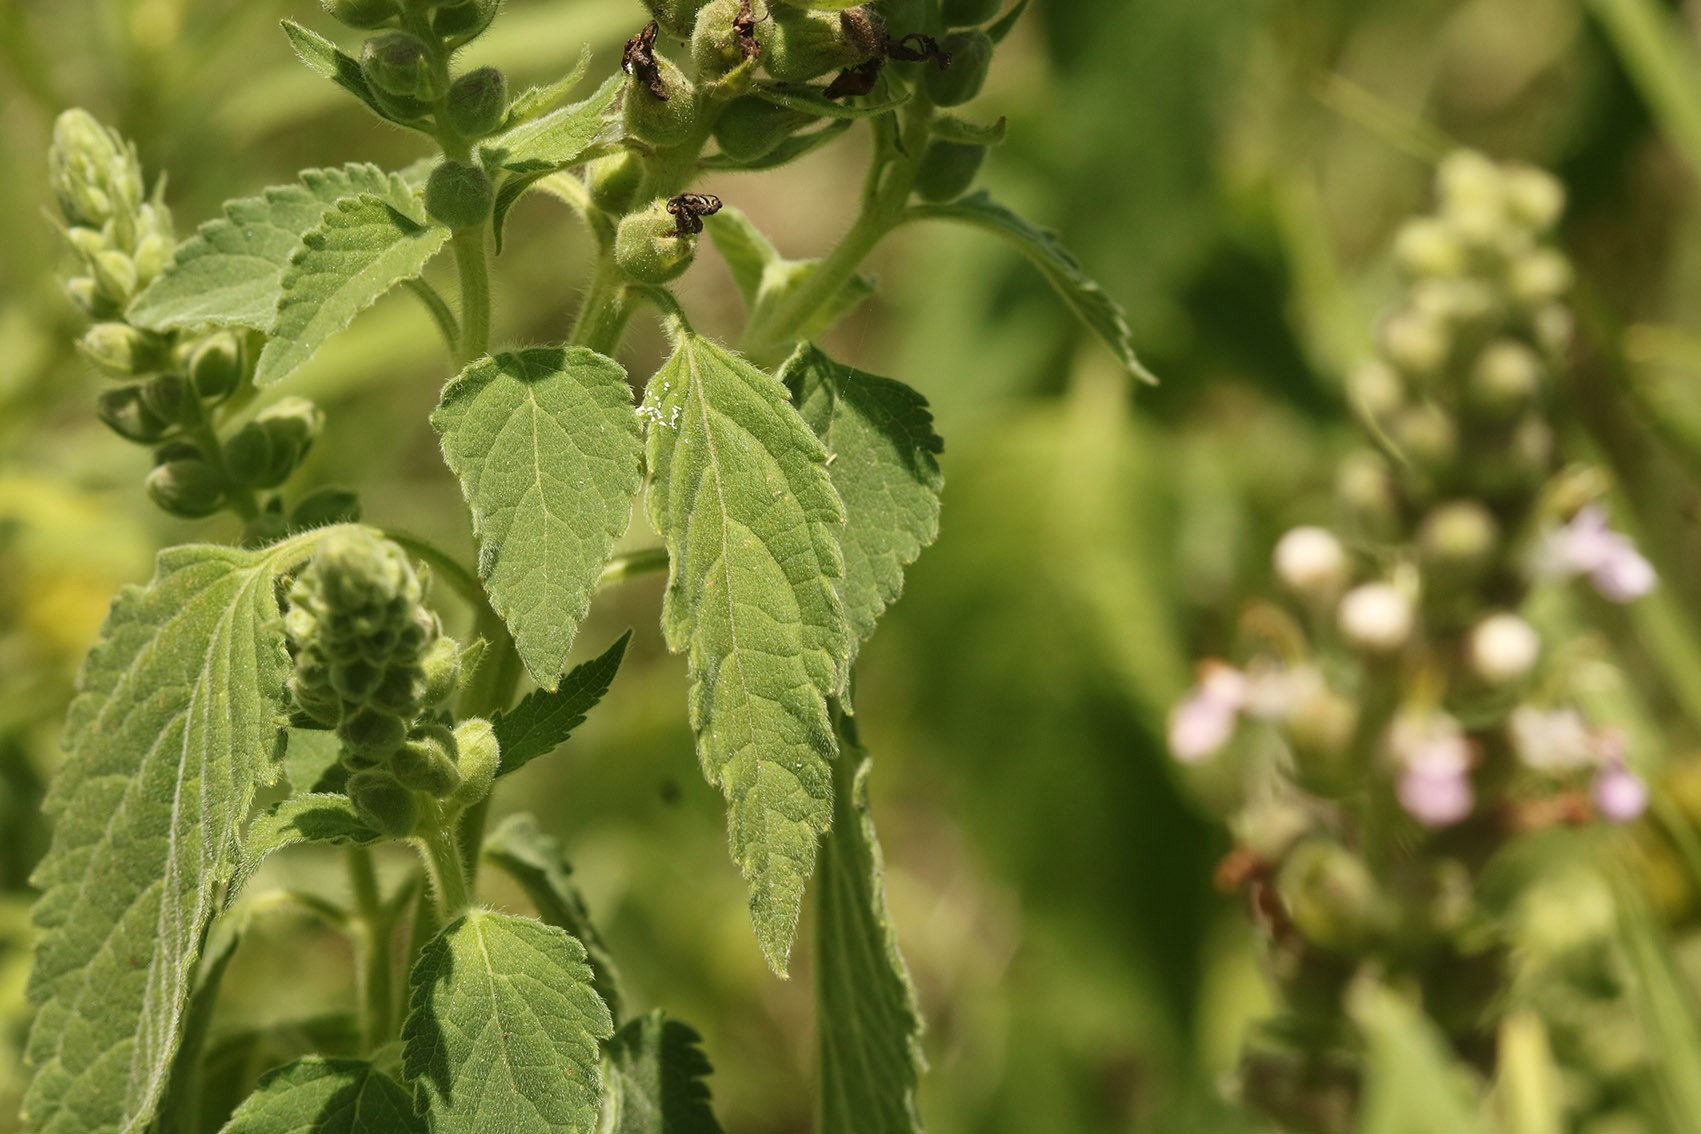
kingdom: Plantae
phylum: Tracheophyta
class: Magnoliopsida
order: Lamiales
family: Lamiaceae
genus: Teucrium
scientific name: Teucrium vesicarium
